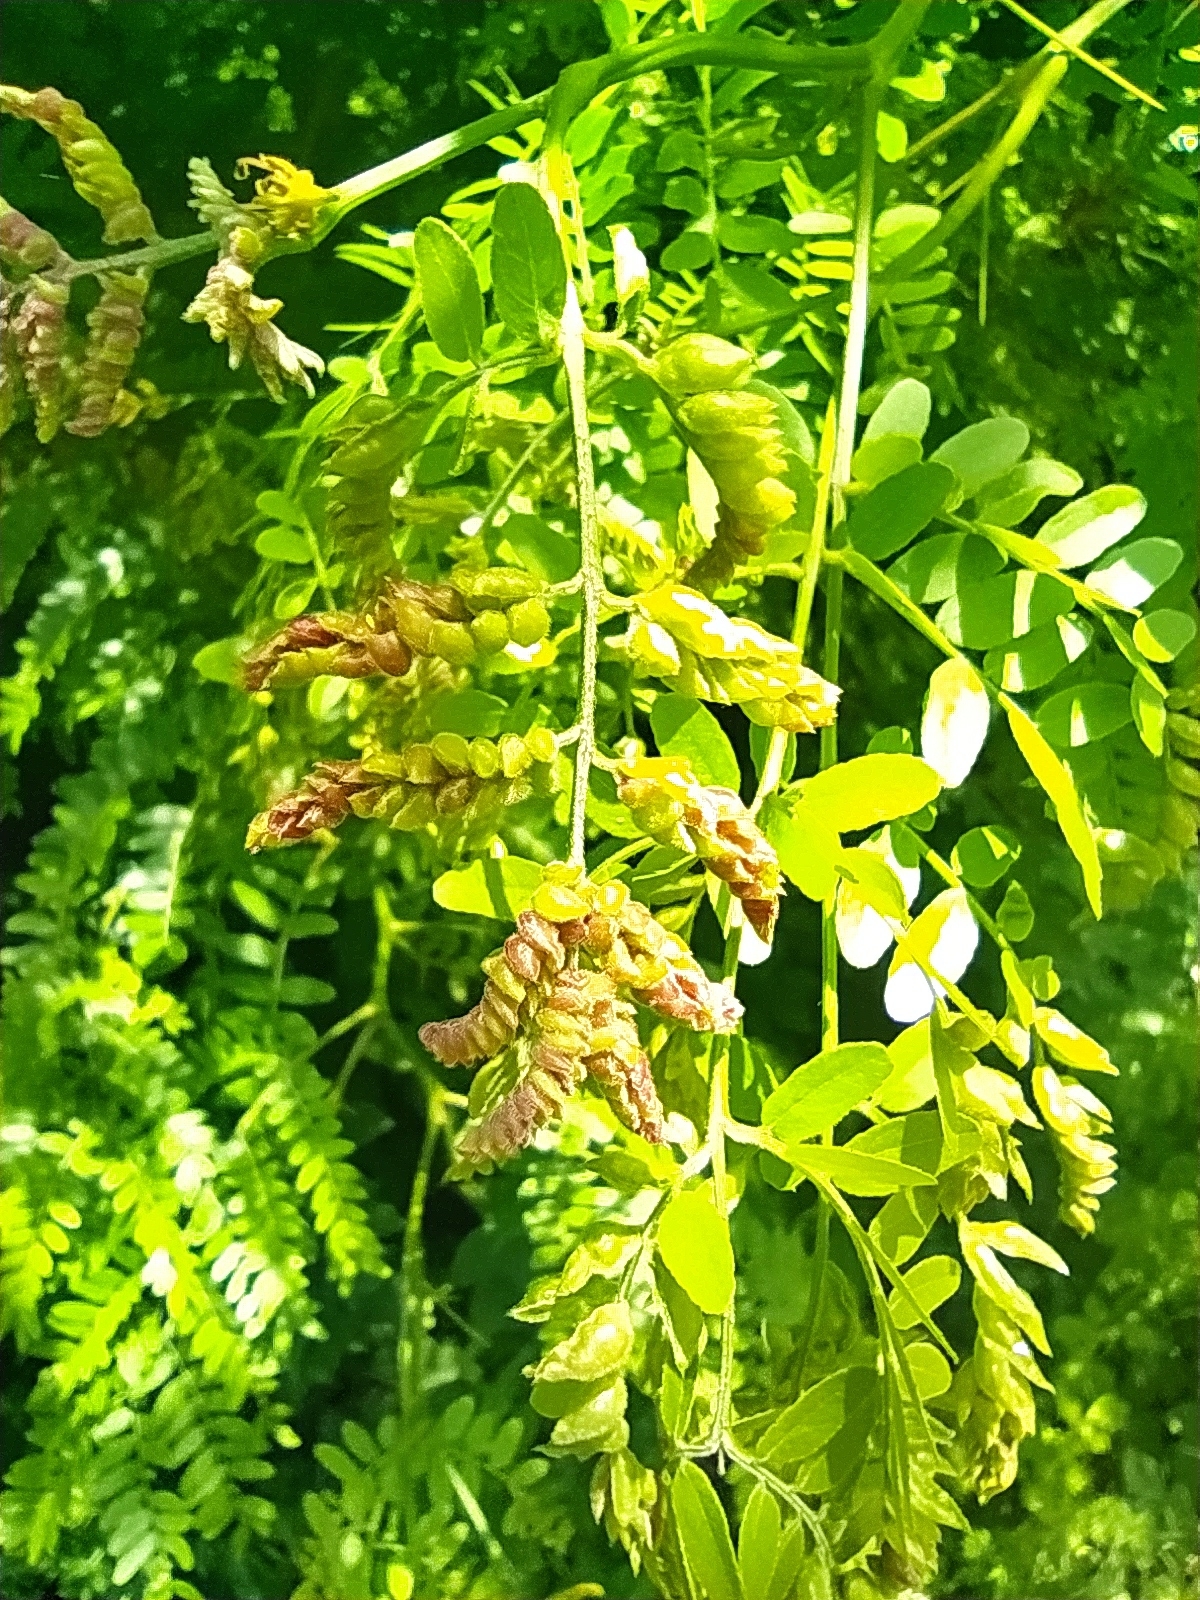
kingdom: Plantae
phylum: Tracheophyta
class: Magnoliopsida
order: Fabales
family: Fabaceae
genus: Gleditsia
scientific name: Gleditsia triacanthos
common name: Common honeylocust
